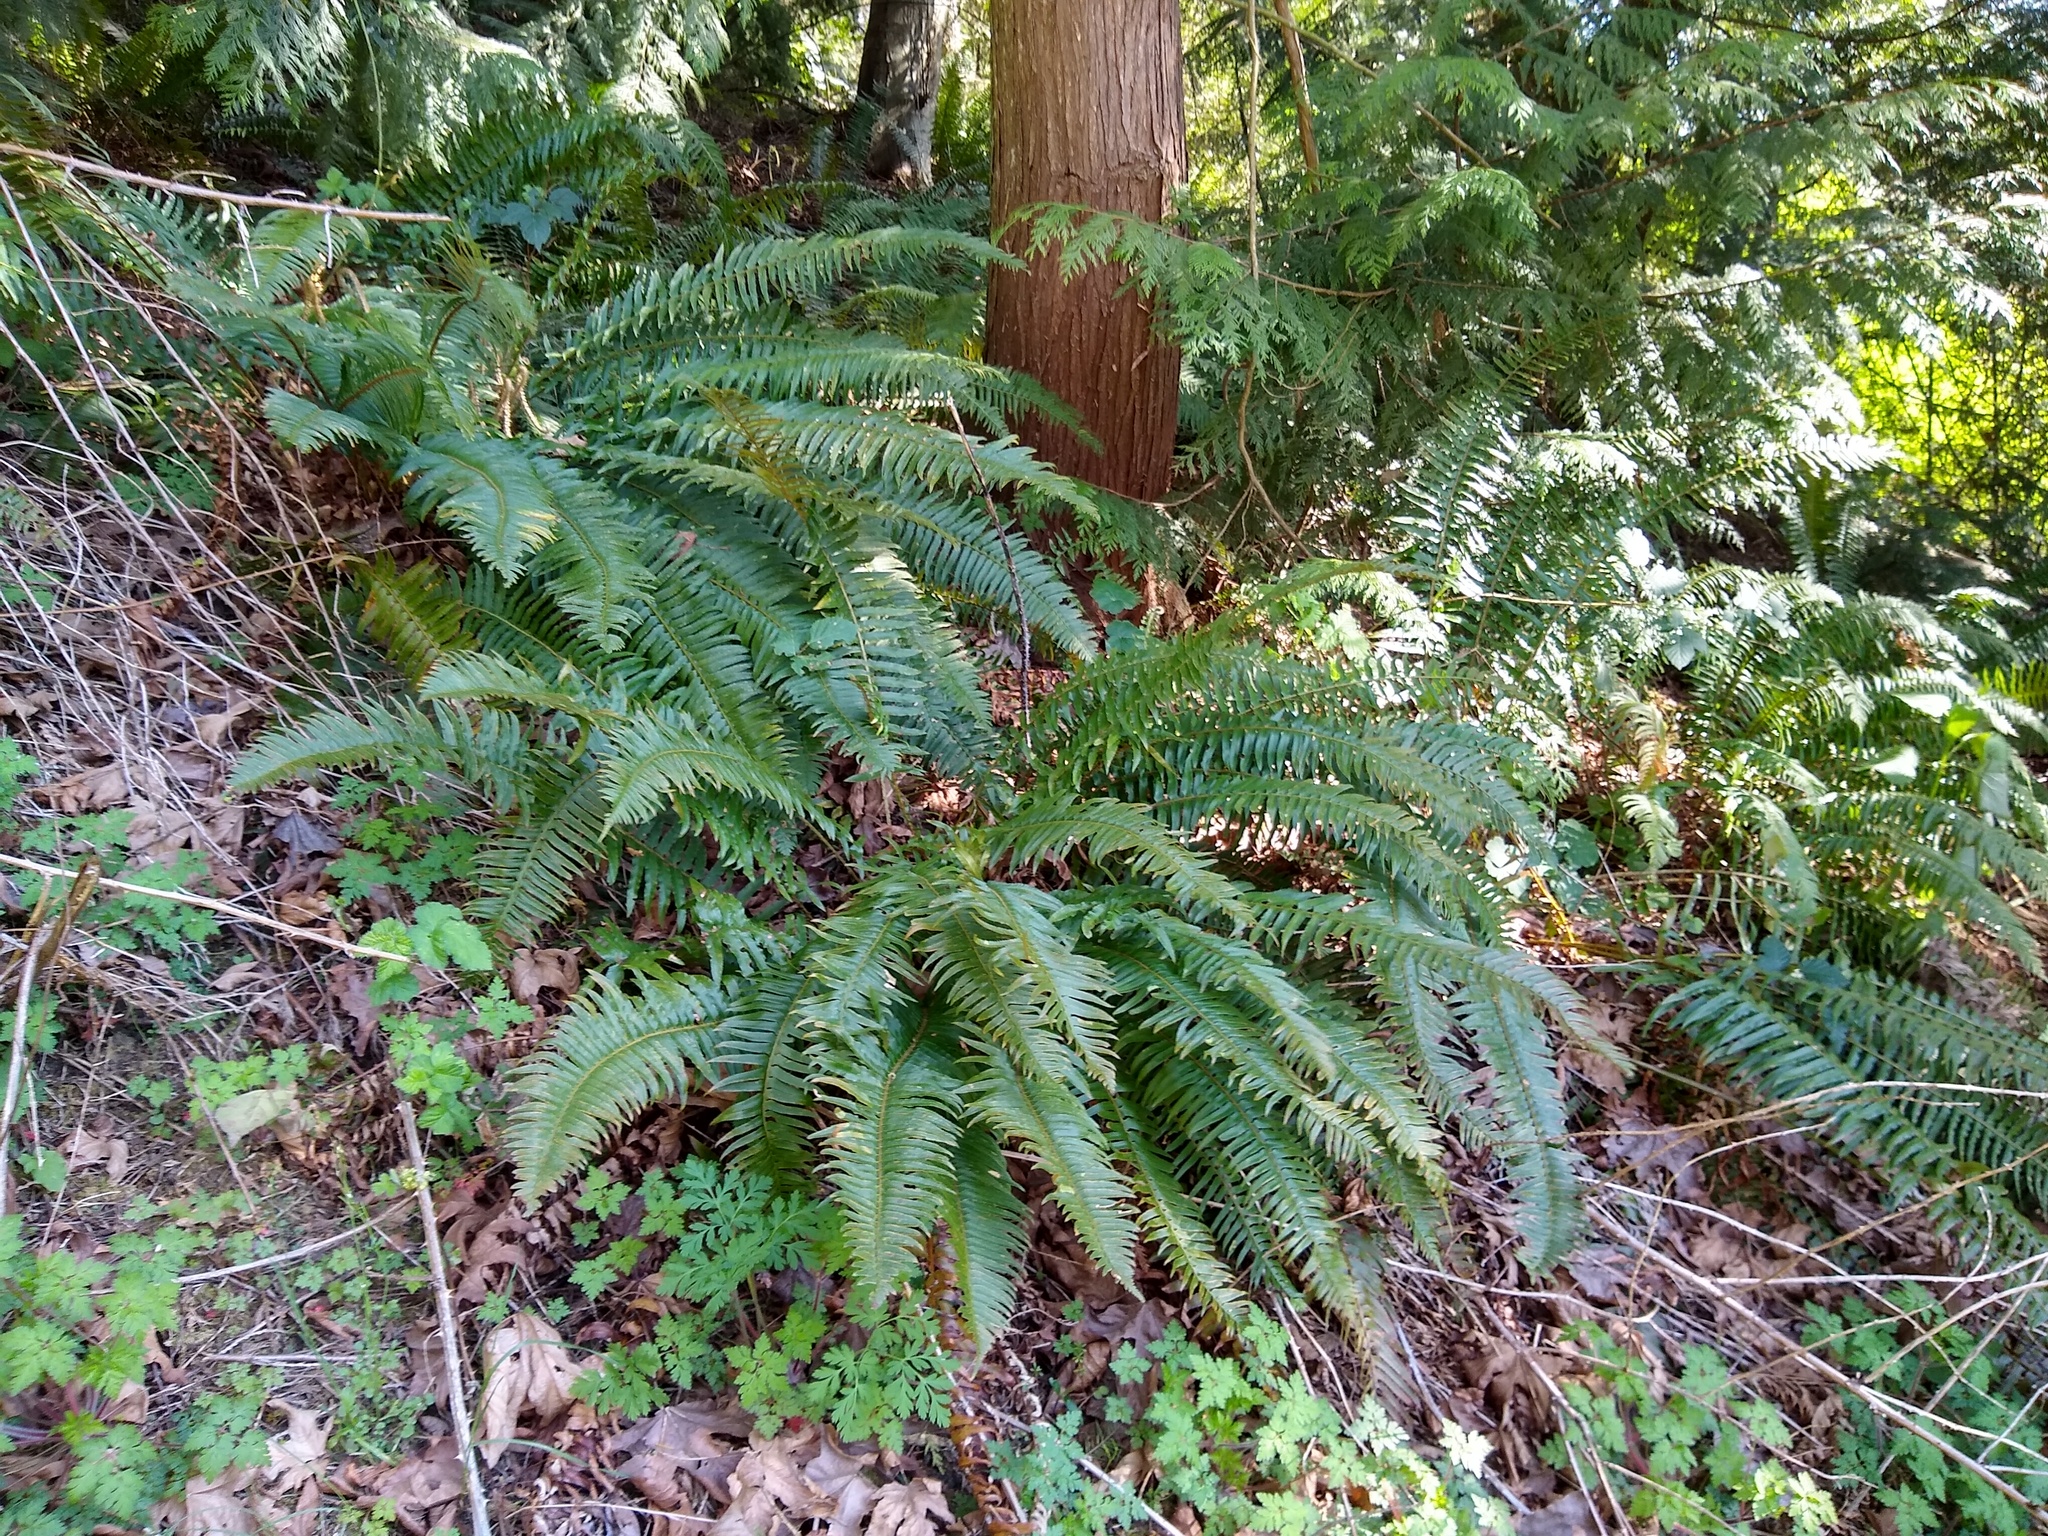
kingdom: Plantae
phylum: Tracheophyta
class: Polypodiopsida
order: Polypodiales
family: Dryopteridaceae
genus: Polystichum
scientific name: Polystichum munitum
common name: Western sword-fern
